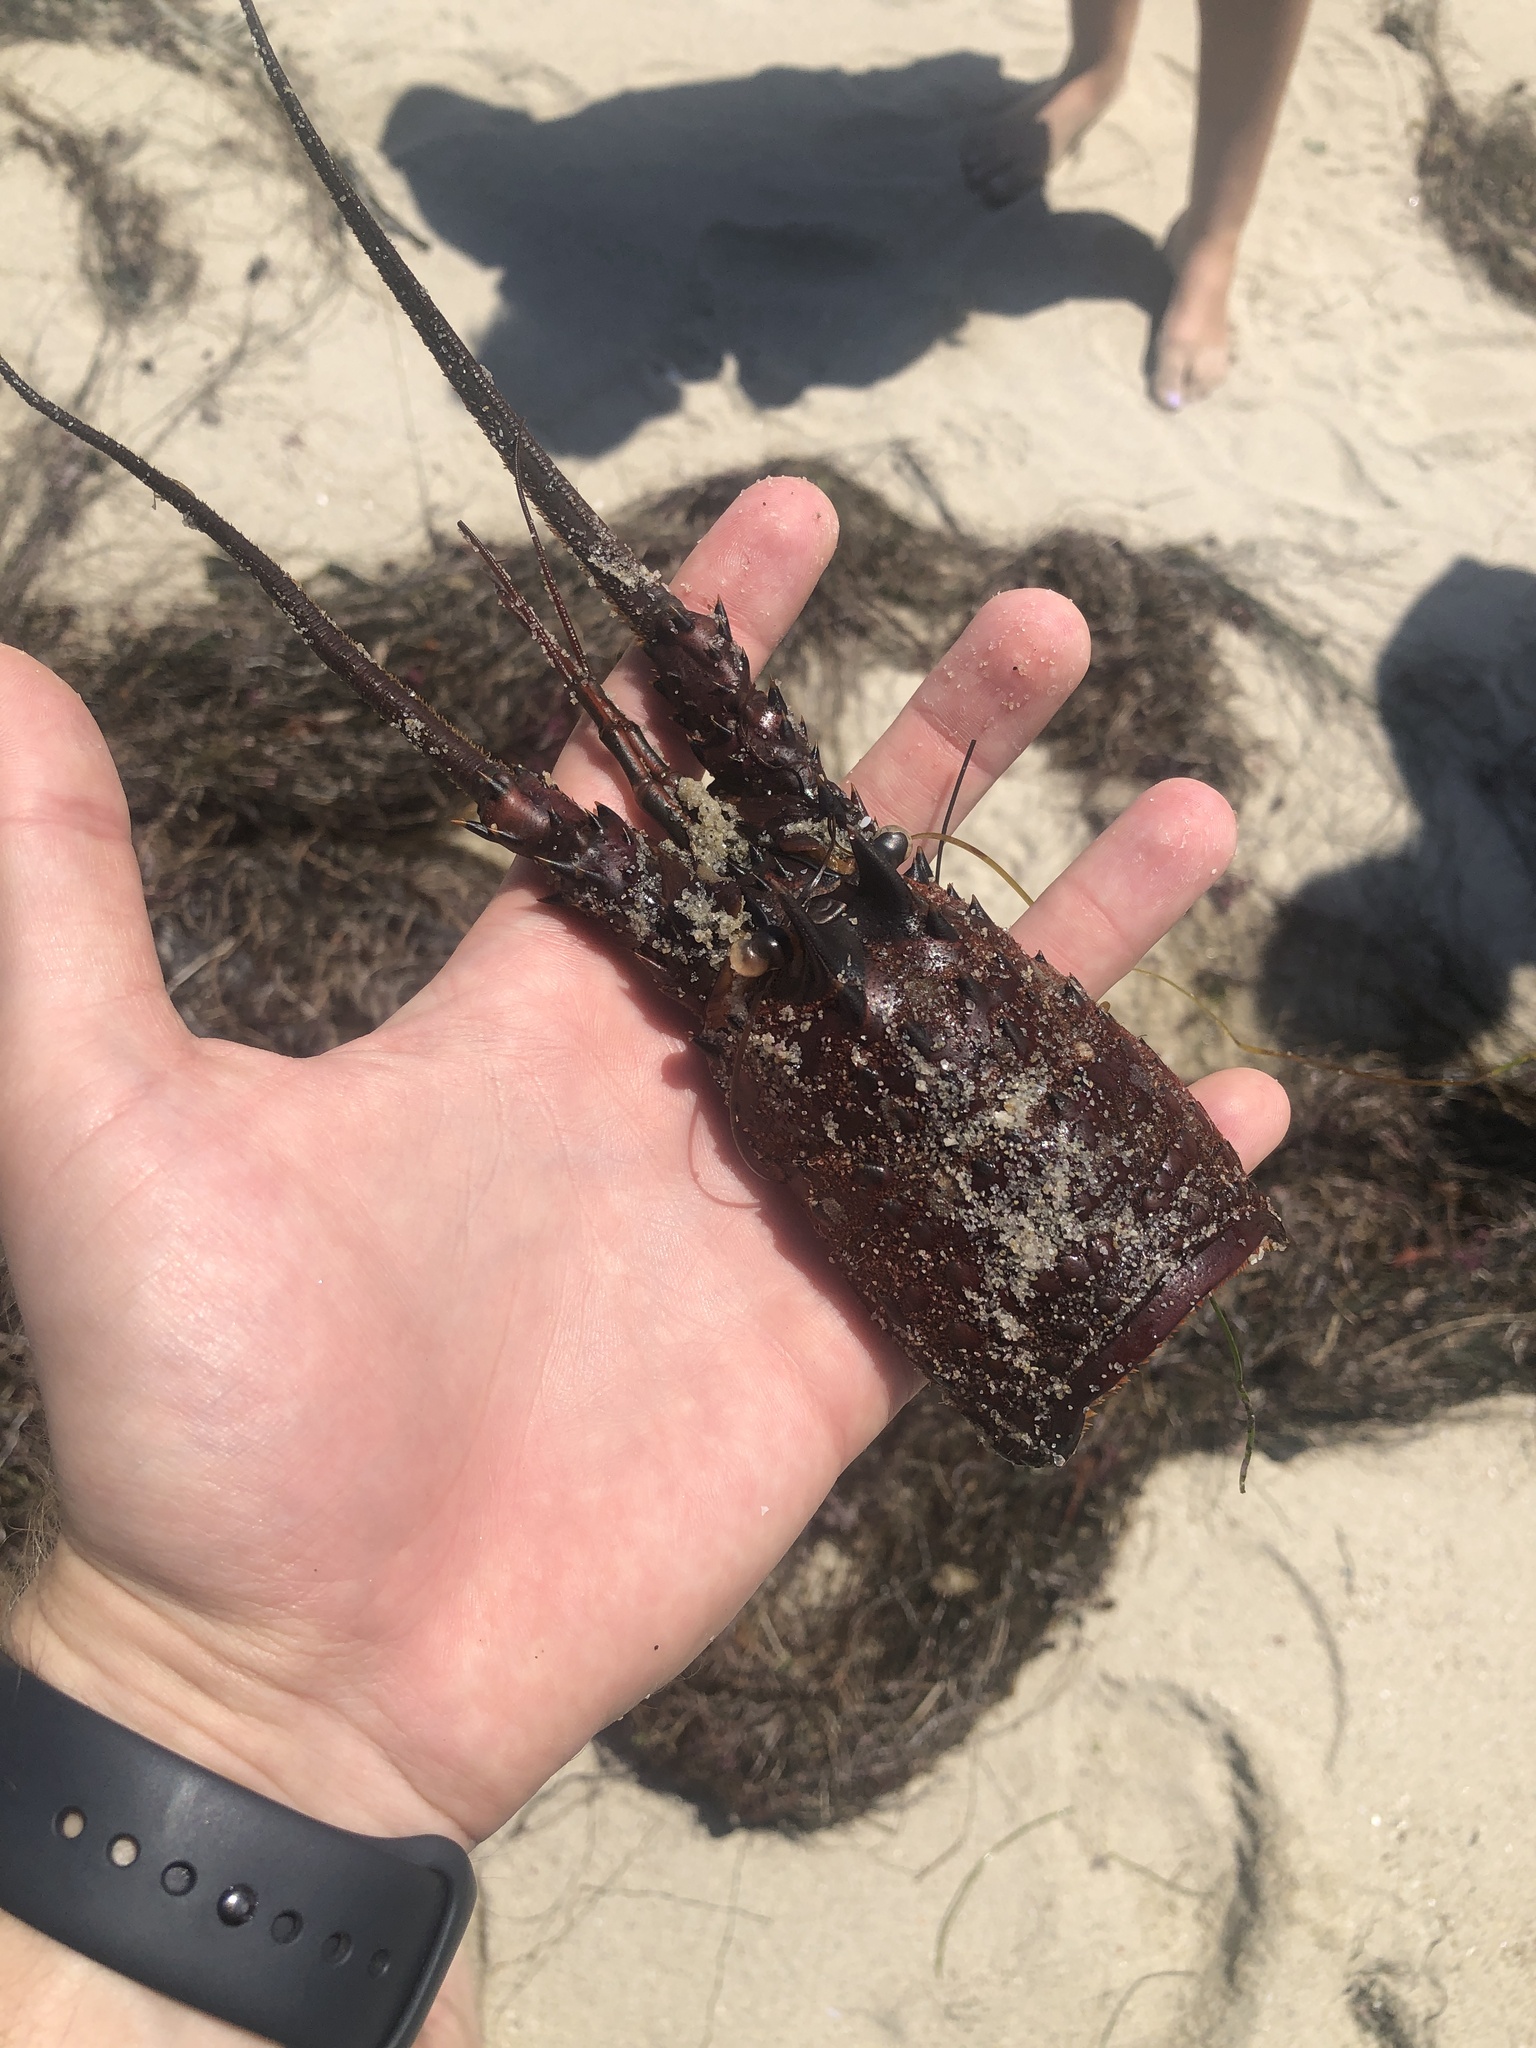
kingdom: Animalia
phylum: Arthropoda
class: Malacostraca
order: Decapoda
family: Palinuridae
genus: Panulirus
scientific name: Panulirus interruptus
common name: California spiny lobster
